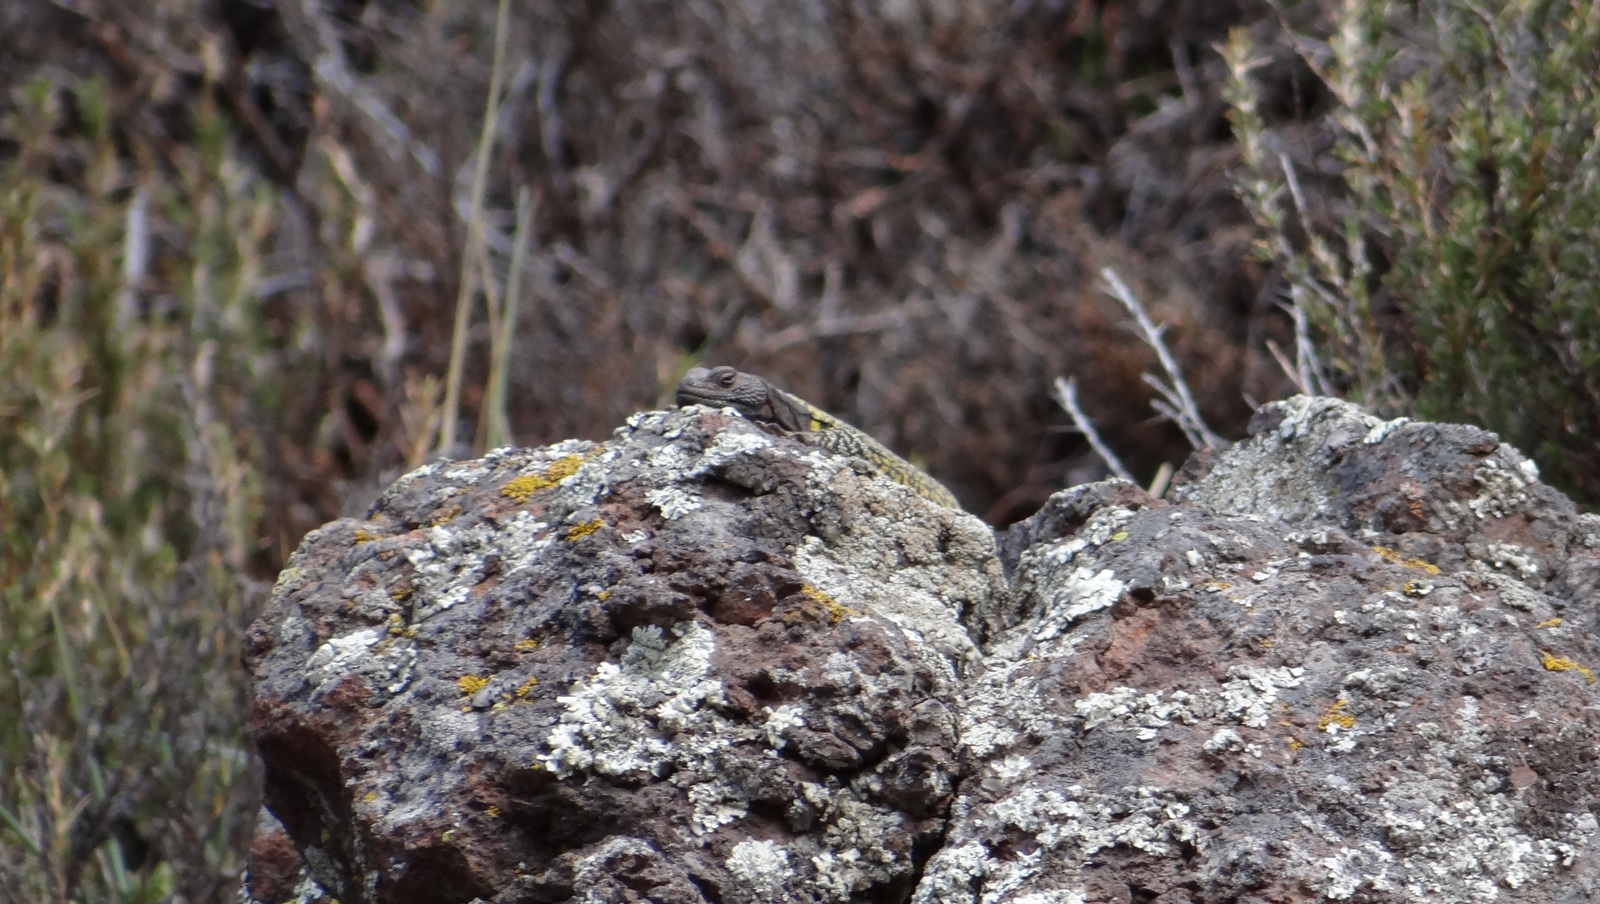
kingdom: Animalia
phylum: Chordata
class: Squamata
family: Liolaemidae
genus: Phymaturus
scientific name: Phymaturus palluma
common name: High mountain lizard
